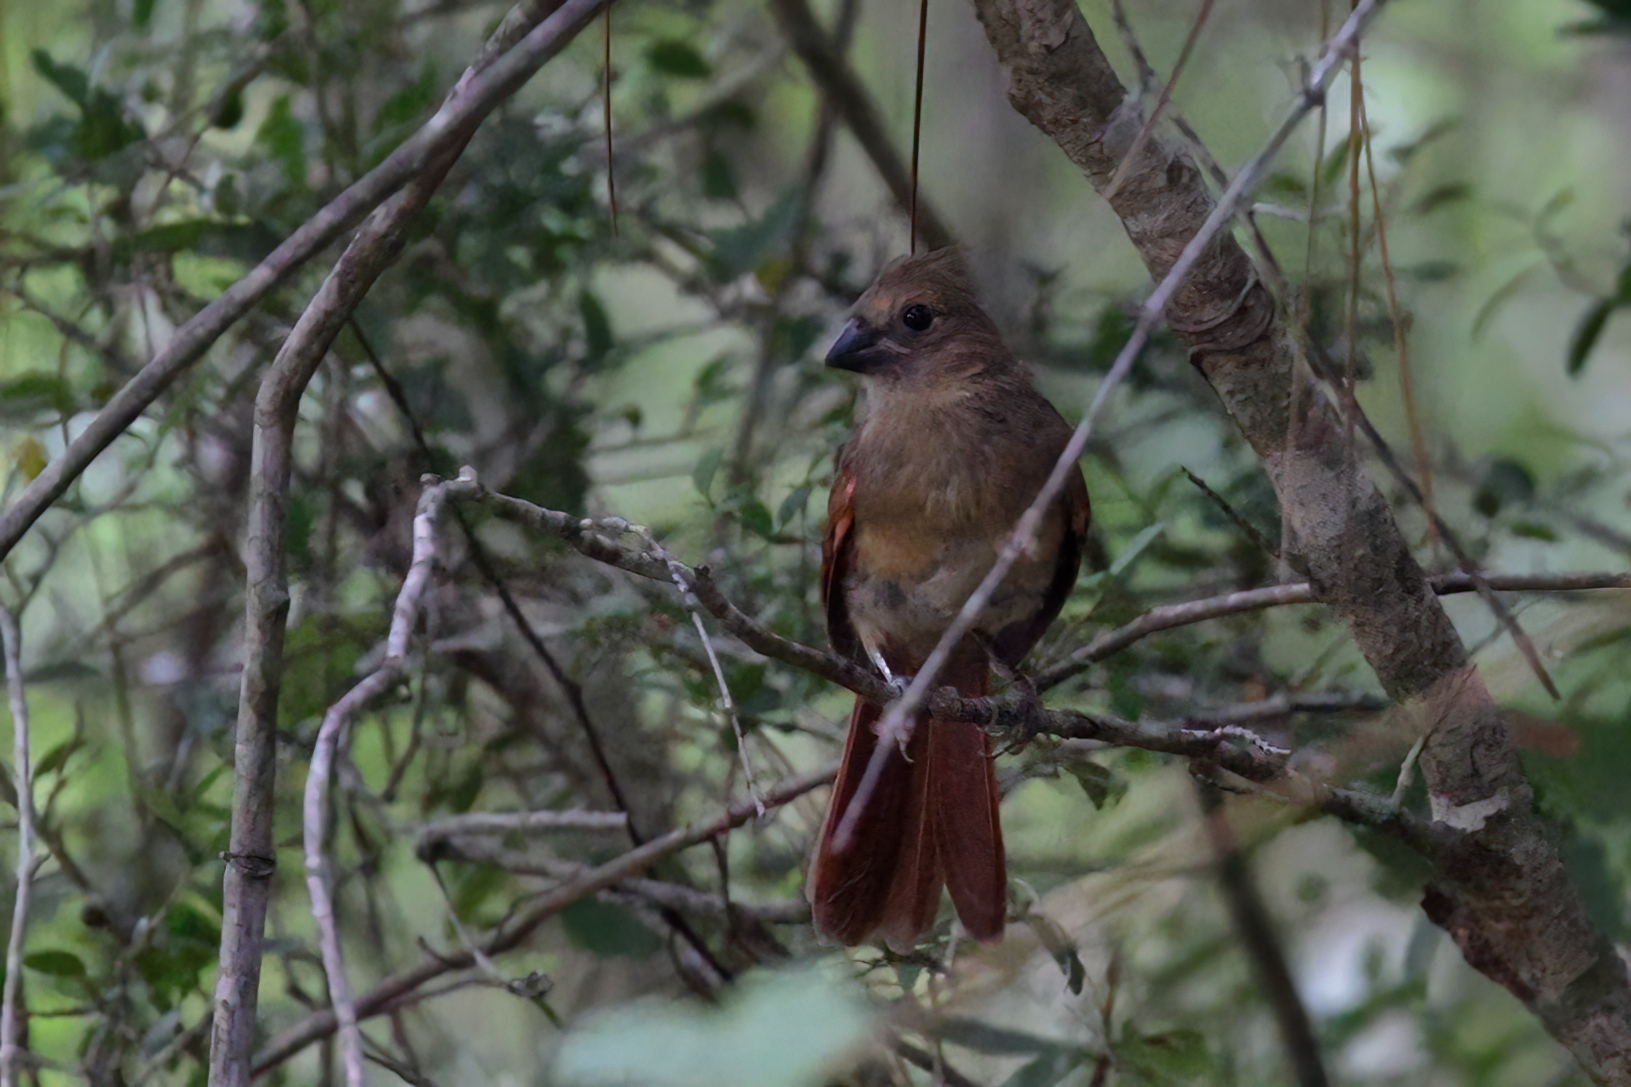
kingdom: Animalia
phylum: Chordata
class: Aves
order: Passeriformes
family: Cardinalidae
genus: Cardinalis
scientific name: Cardinalis cardinalis
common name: Northern cardinal
